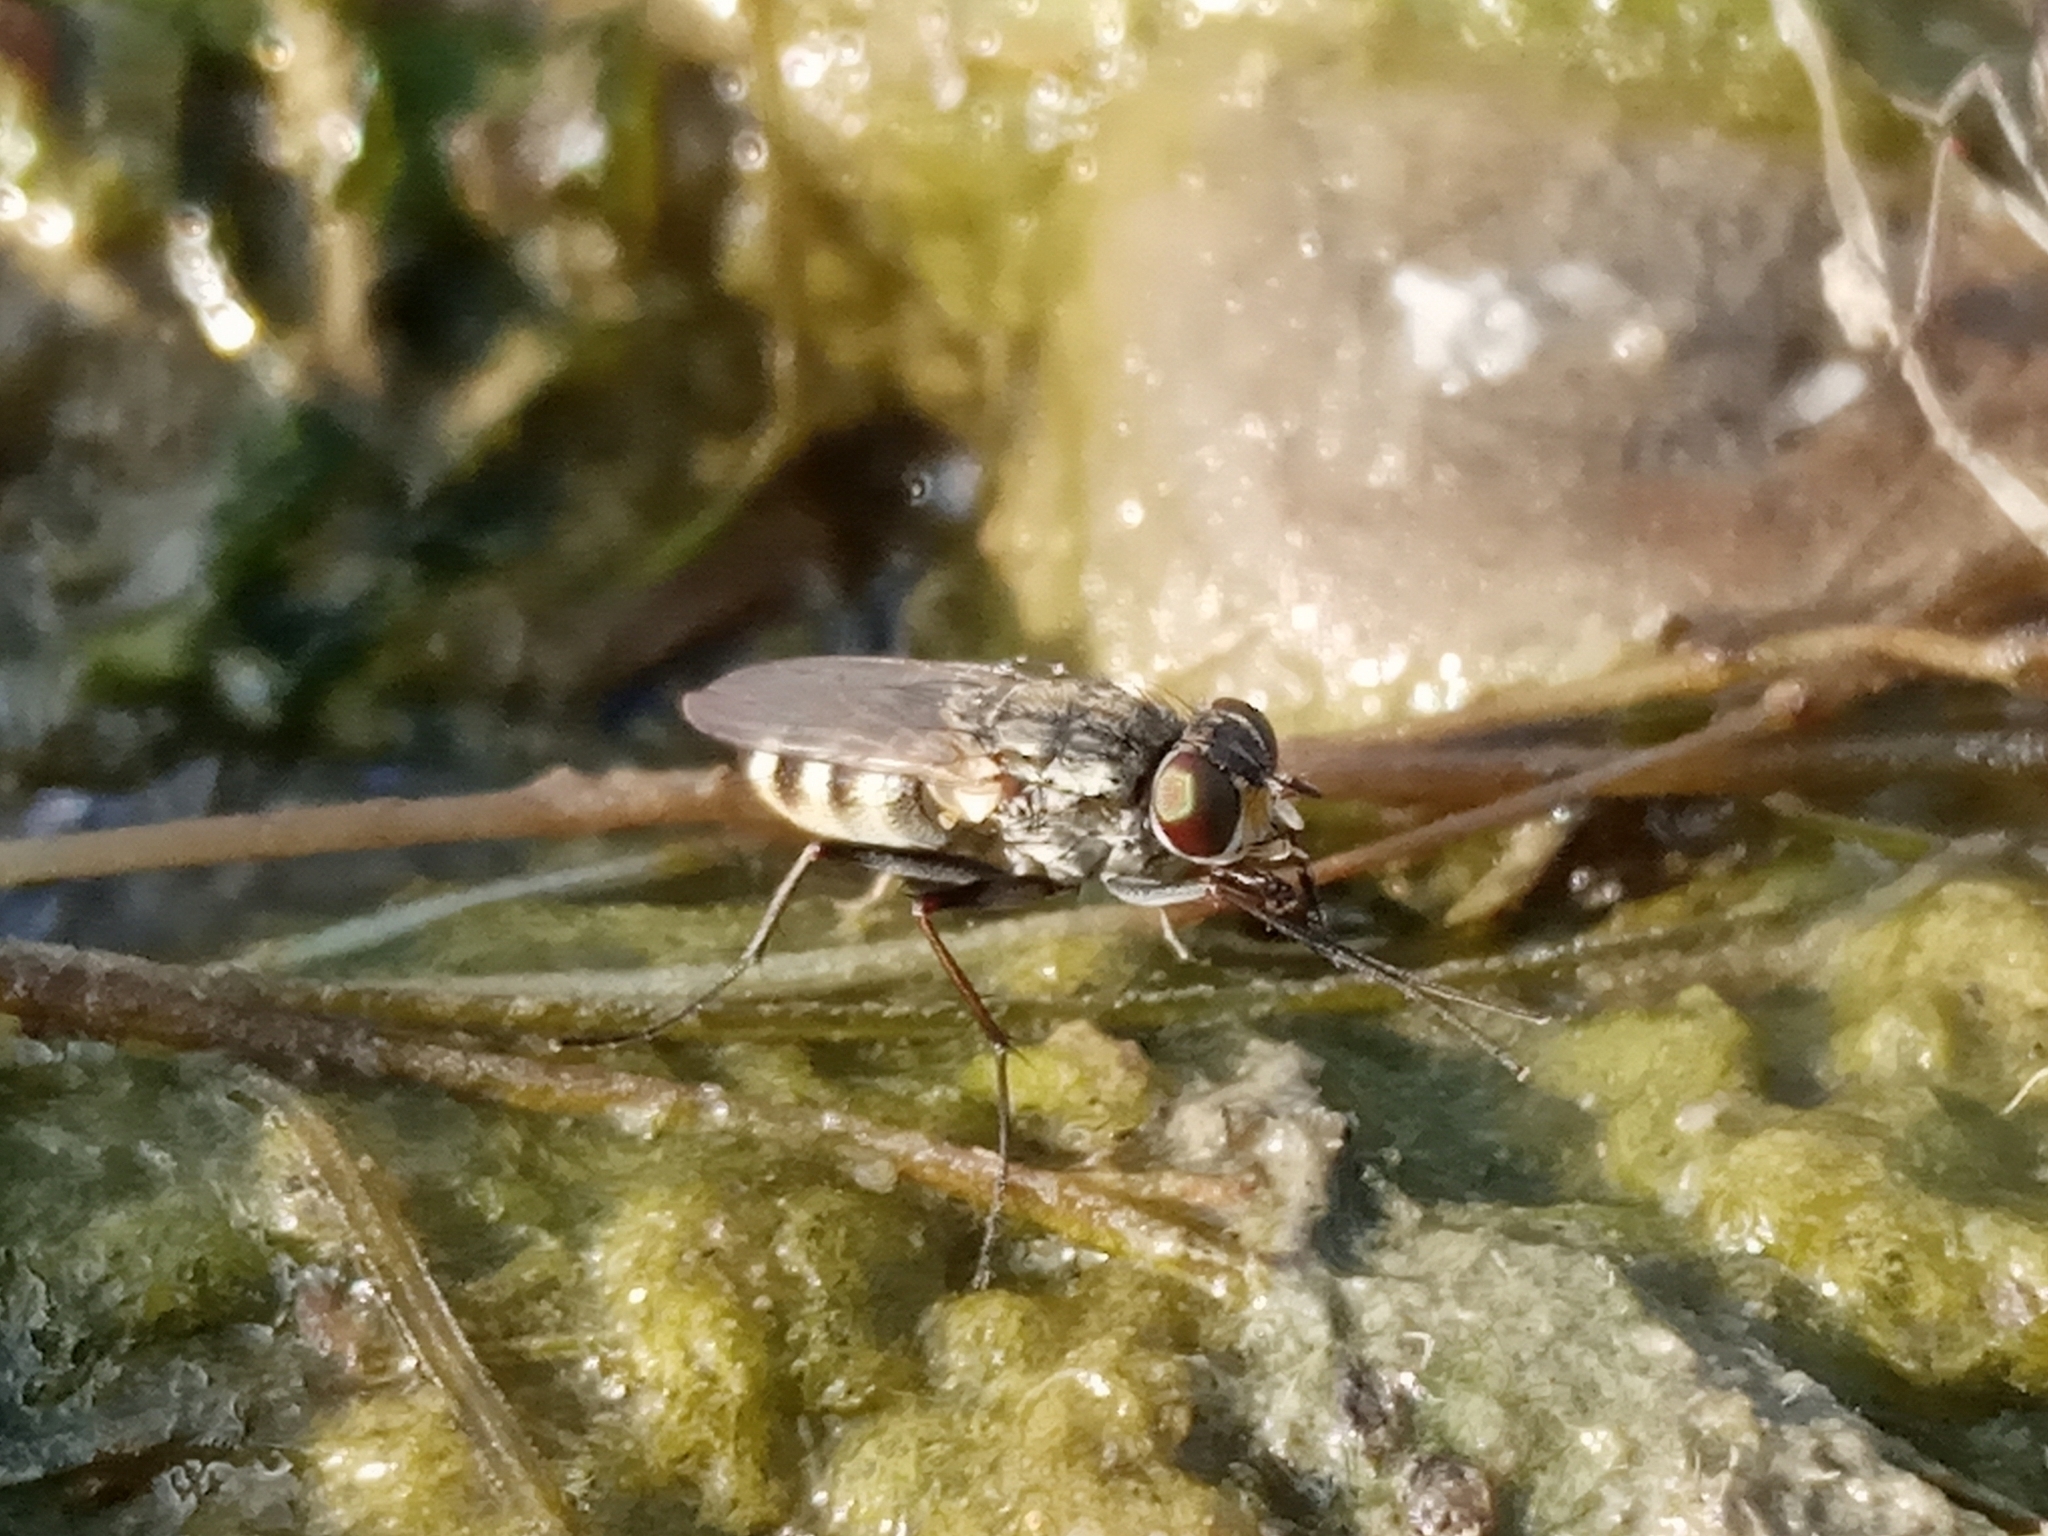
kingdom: Animalia
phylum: Arthropoda
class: Insecta
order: Diptera
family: Muscidae
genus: Lispe
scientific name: Lispe
